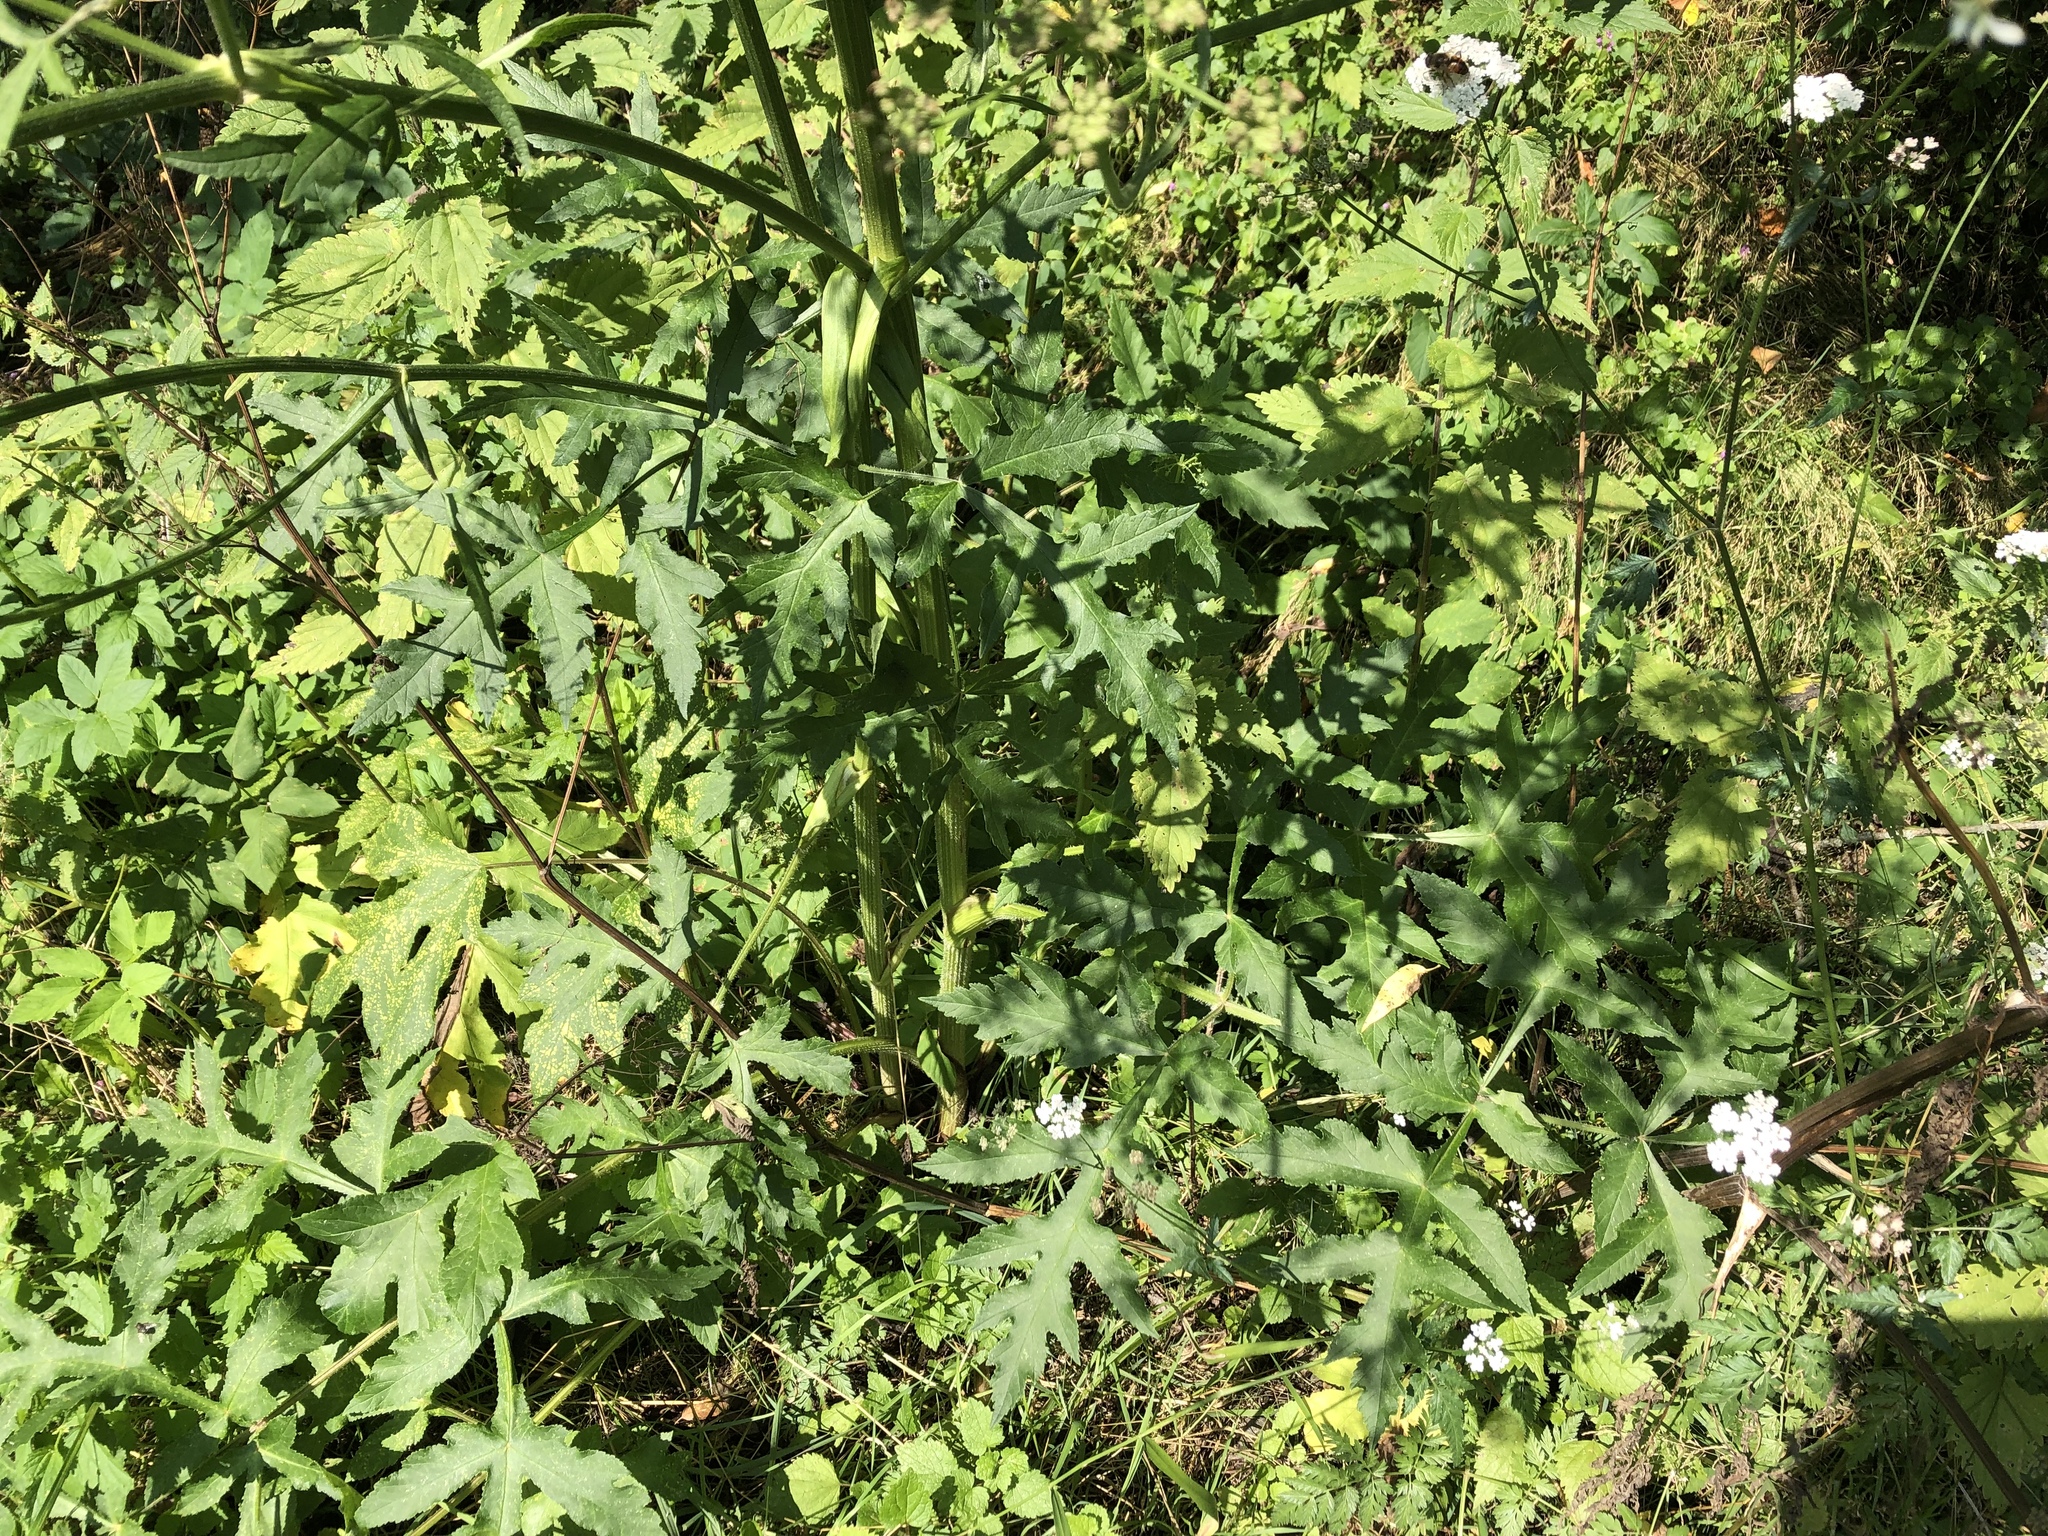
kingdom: Plantae
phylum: Tracheophyta
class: Magnoliopsida
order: Apiales
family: Apiaceae
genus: Heracleum
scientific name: Heracleum sphondylium
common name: Hogweed
